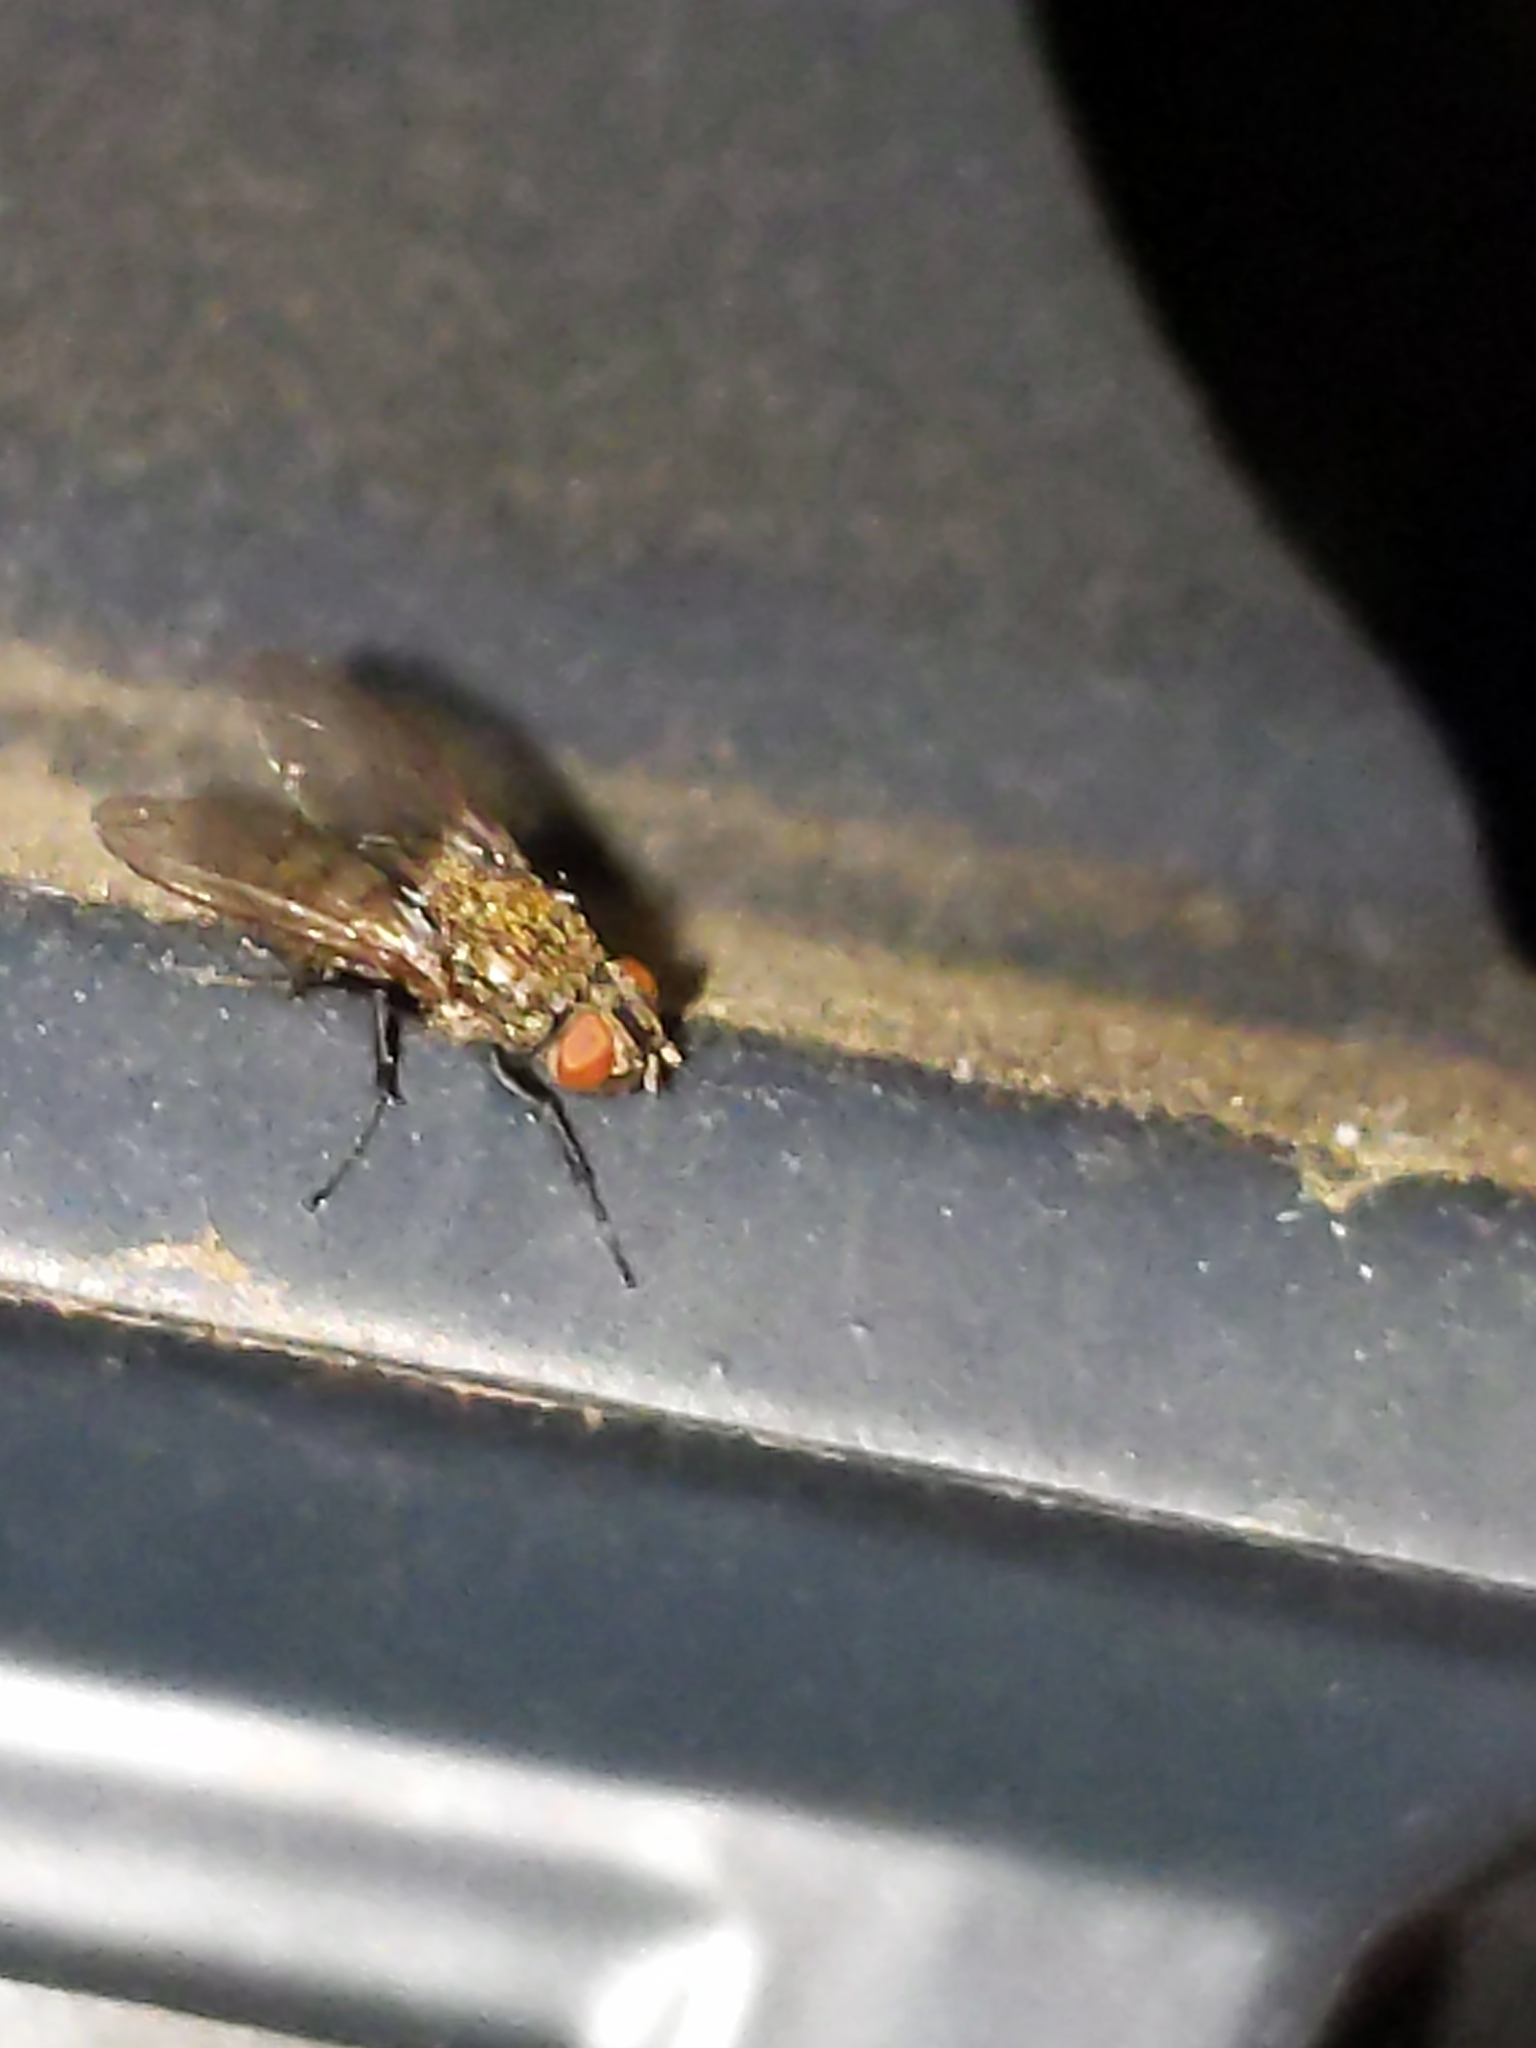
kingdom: Animalia
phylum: Arthropoda
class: Insecta
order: Diptera
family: Polleniidae
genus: Pollenia
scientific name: Pollenia
